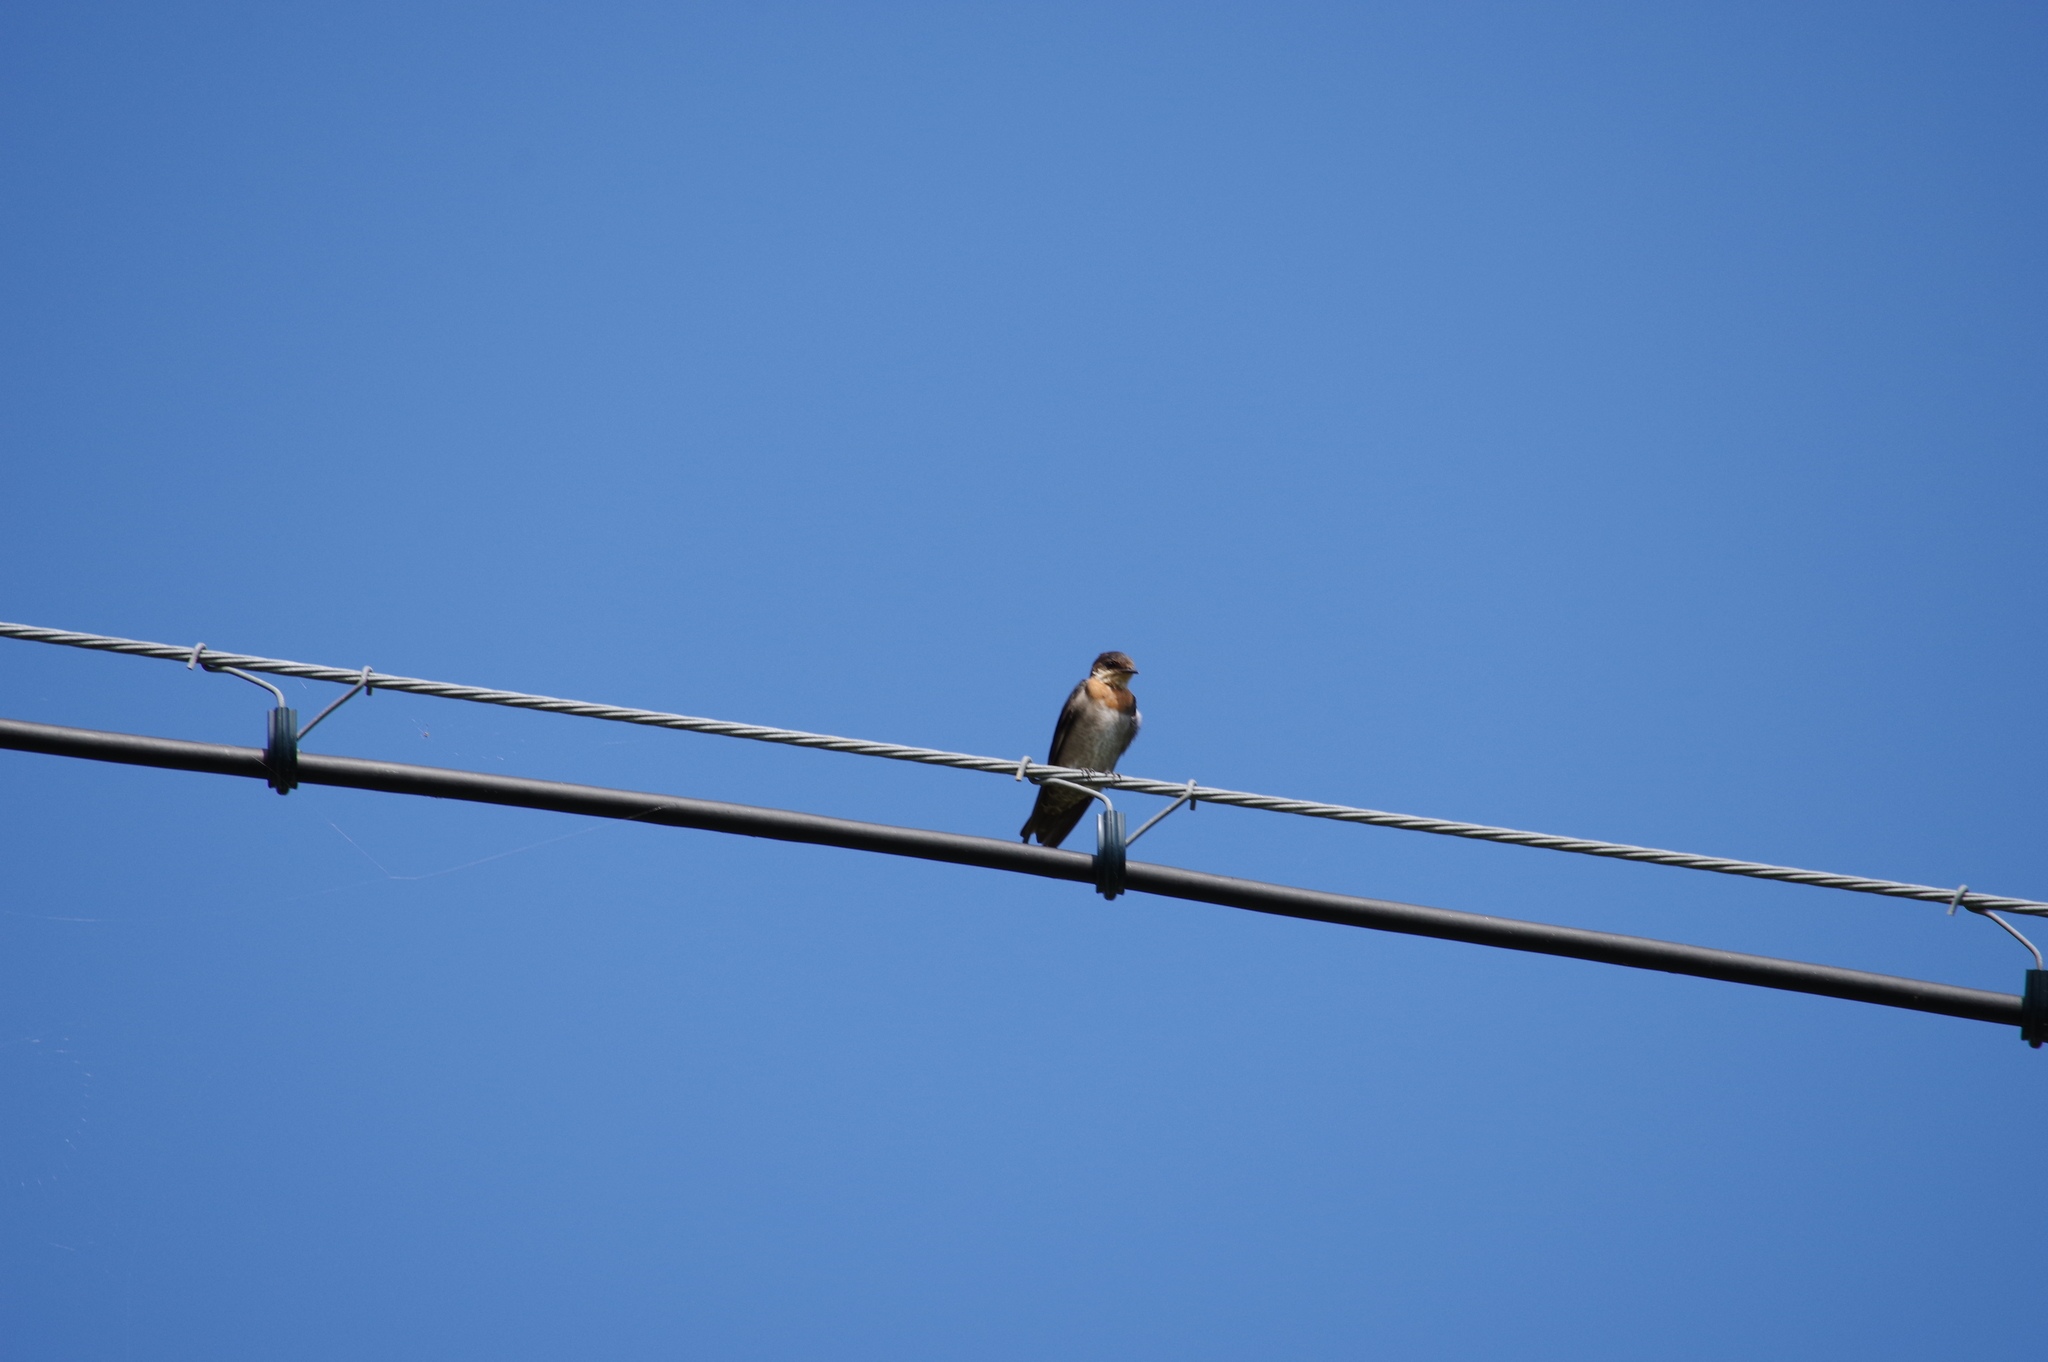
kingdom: Animalia
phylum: Chordata
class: Aves
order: Passeriformes
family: Hirundinidae
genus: Hirundo
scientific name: Hirundo tahitica
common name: Pacific swallow
